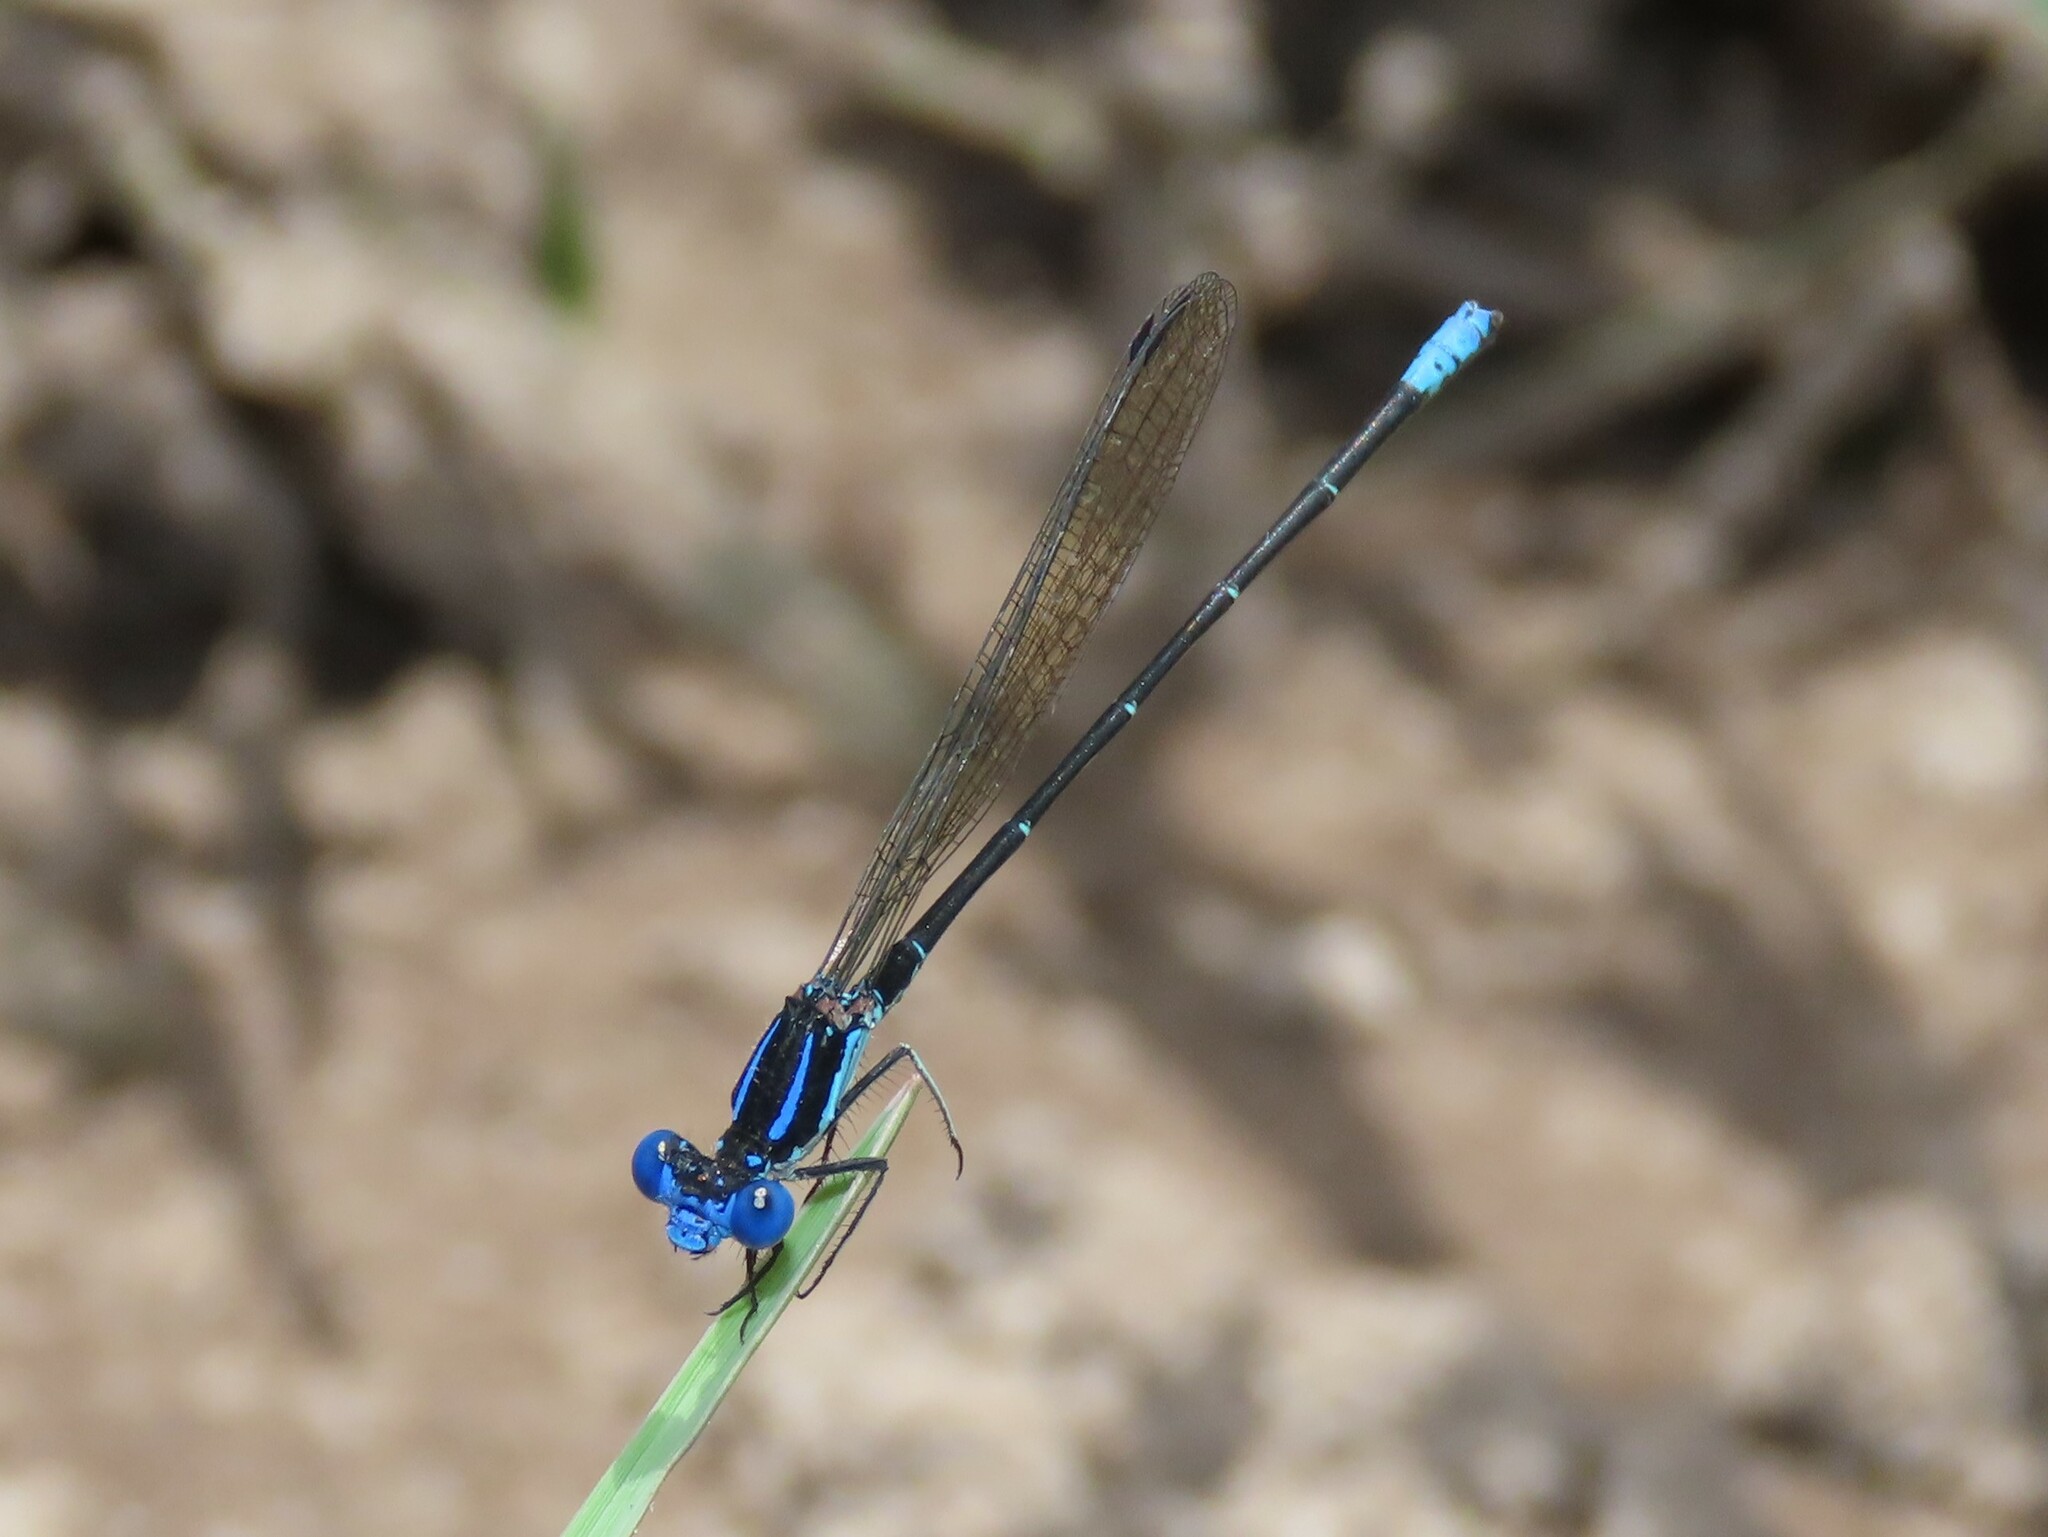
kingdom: Animalia
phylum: Arthropoda
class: Insecta
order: Odonata
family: Coenagrionidae
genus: Argia
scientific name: Argia sedula
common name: Blue-ringed dancer
